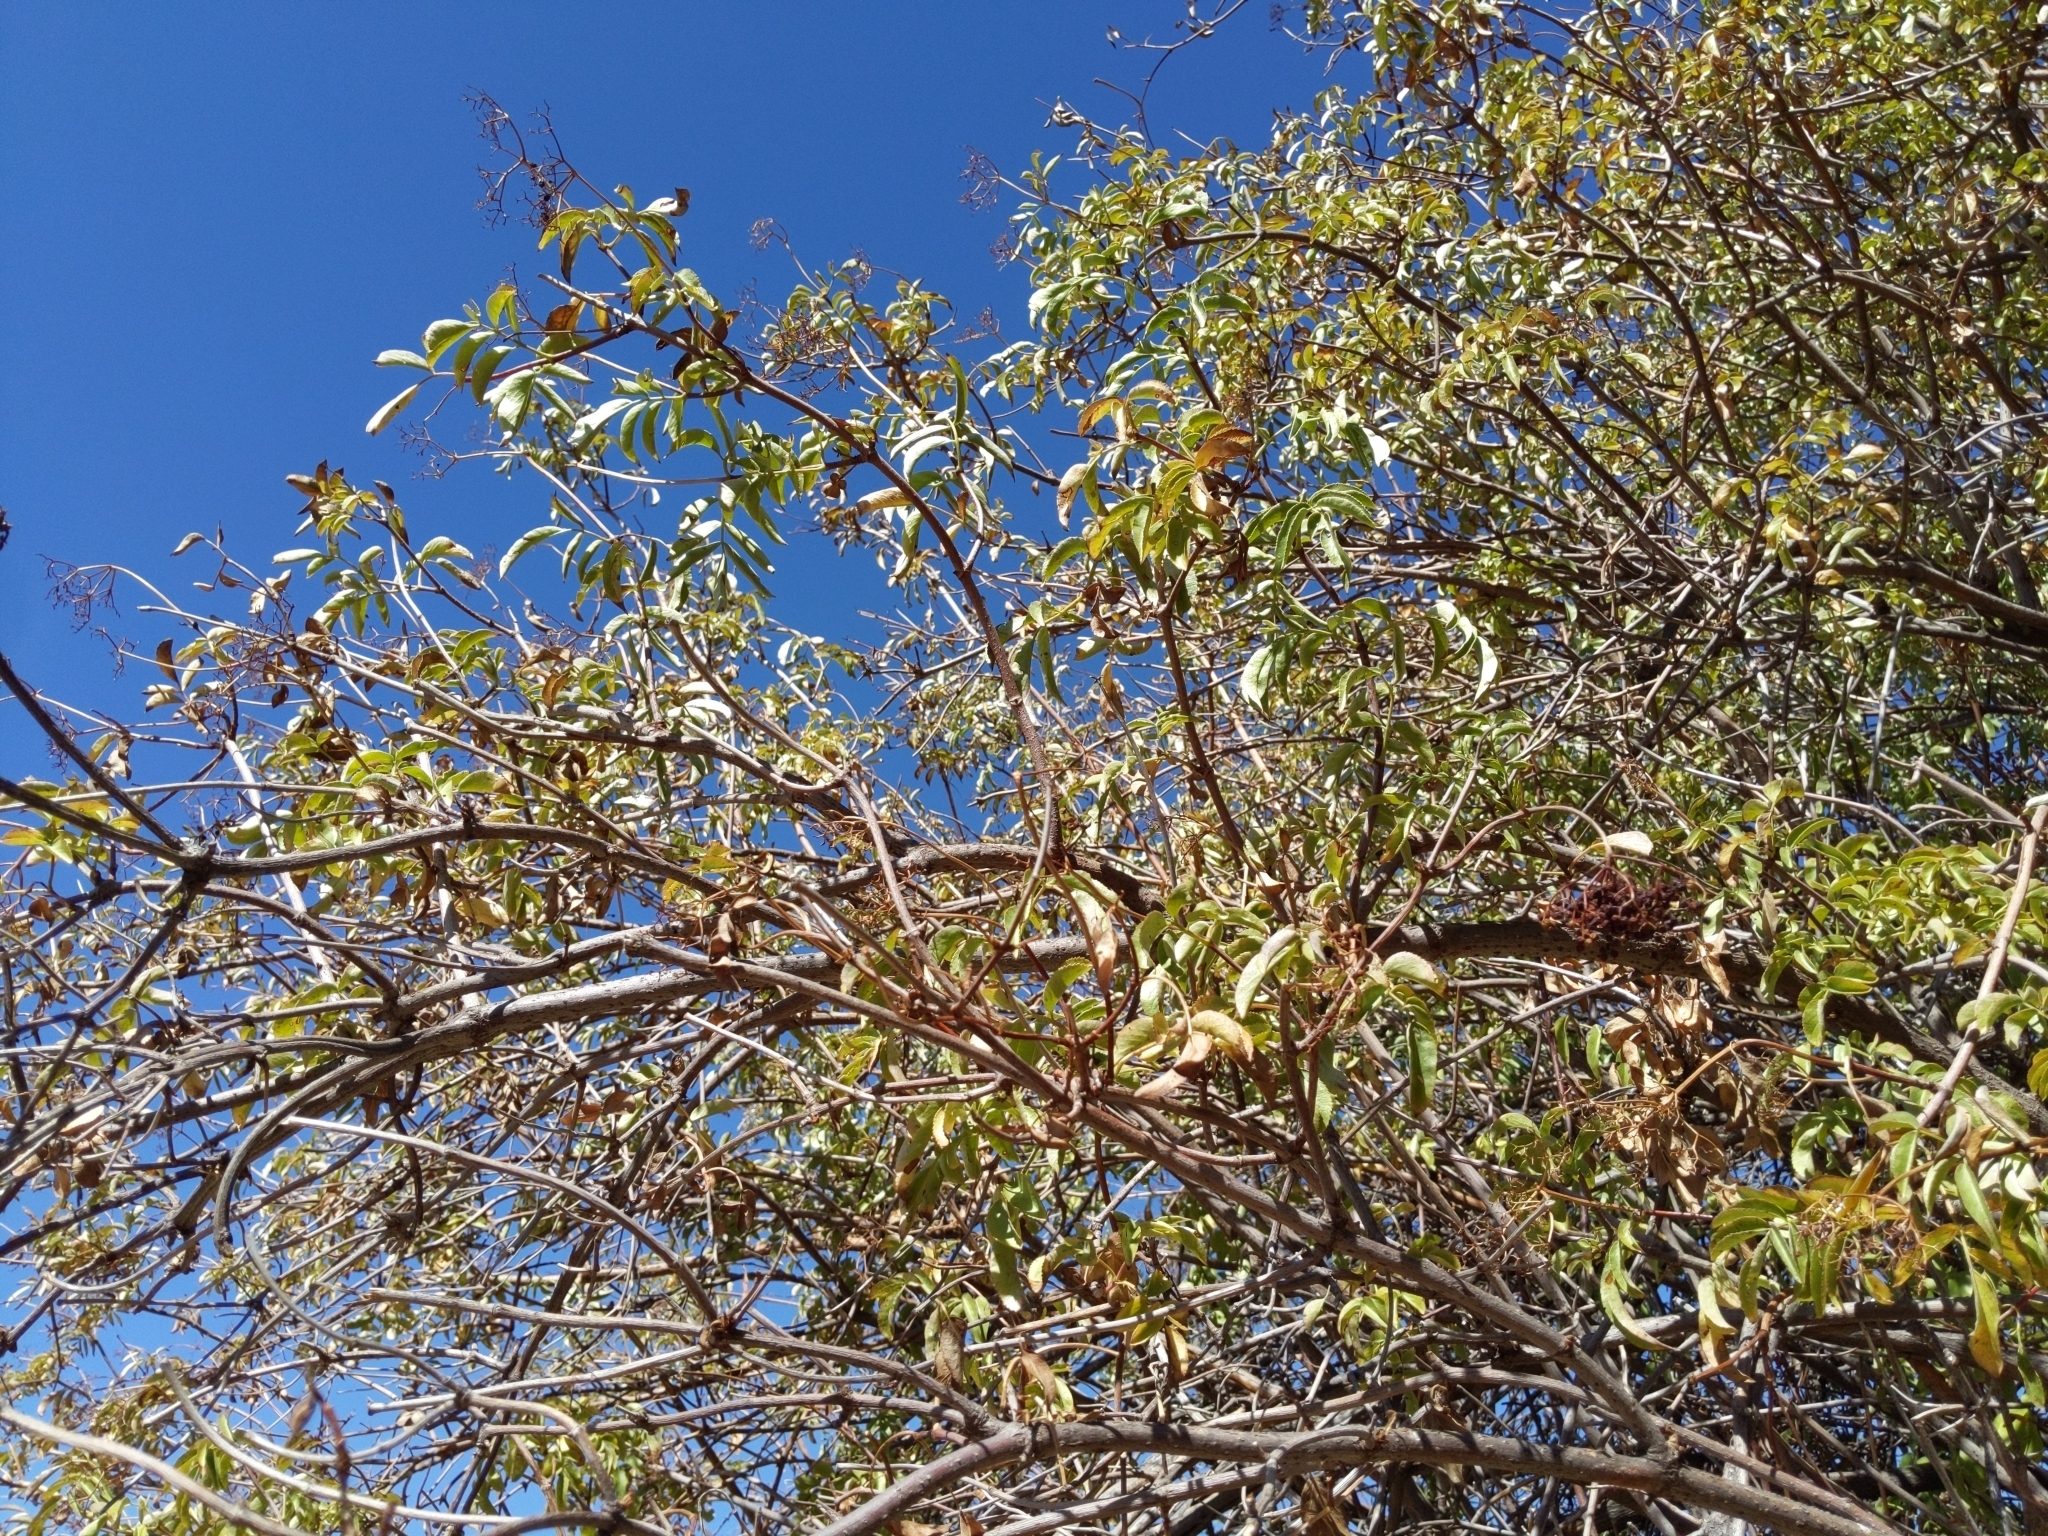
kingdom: Plantae
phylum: Tracheophyta
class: Magnoliopsida
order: Dipsacales
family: Viburnaceae
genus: Sambucus
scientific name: Sambucus cerulea
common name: Blue elder
